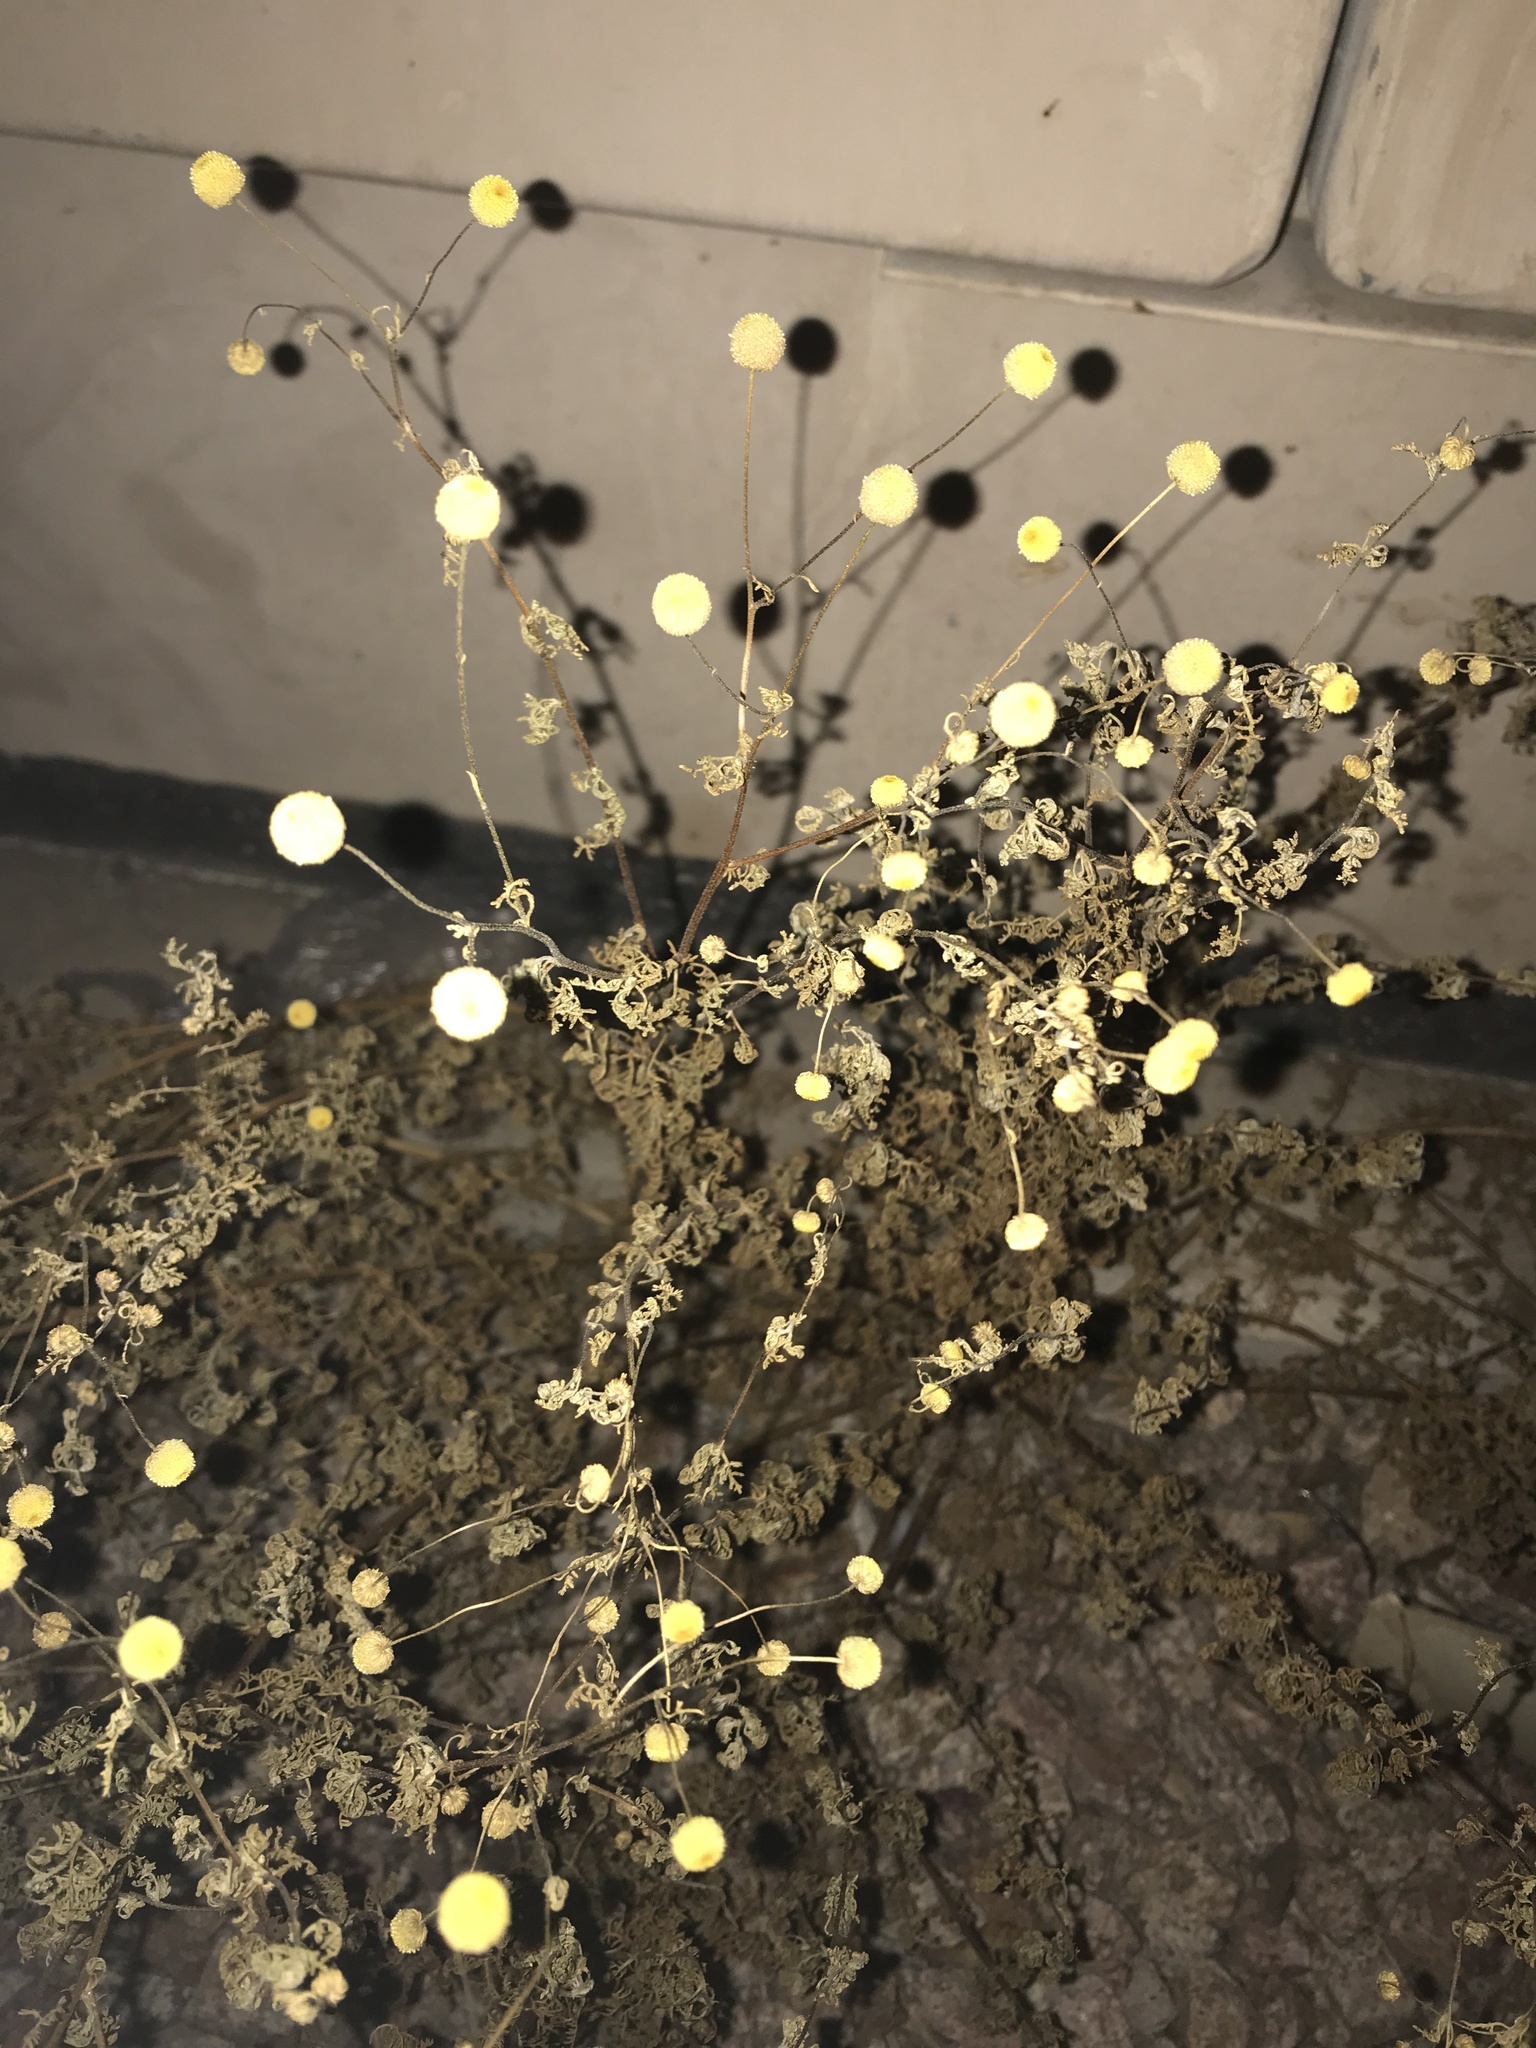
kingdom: Plantae
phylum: Tracheophyta
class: Magnoliopsida
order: Asterales
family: Asteraceae
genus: Oncosiphon
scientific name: Oncosiphon pilulifer
